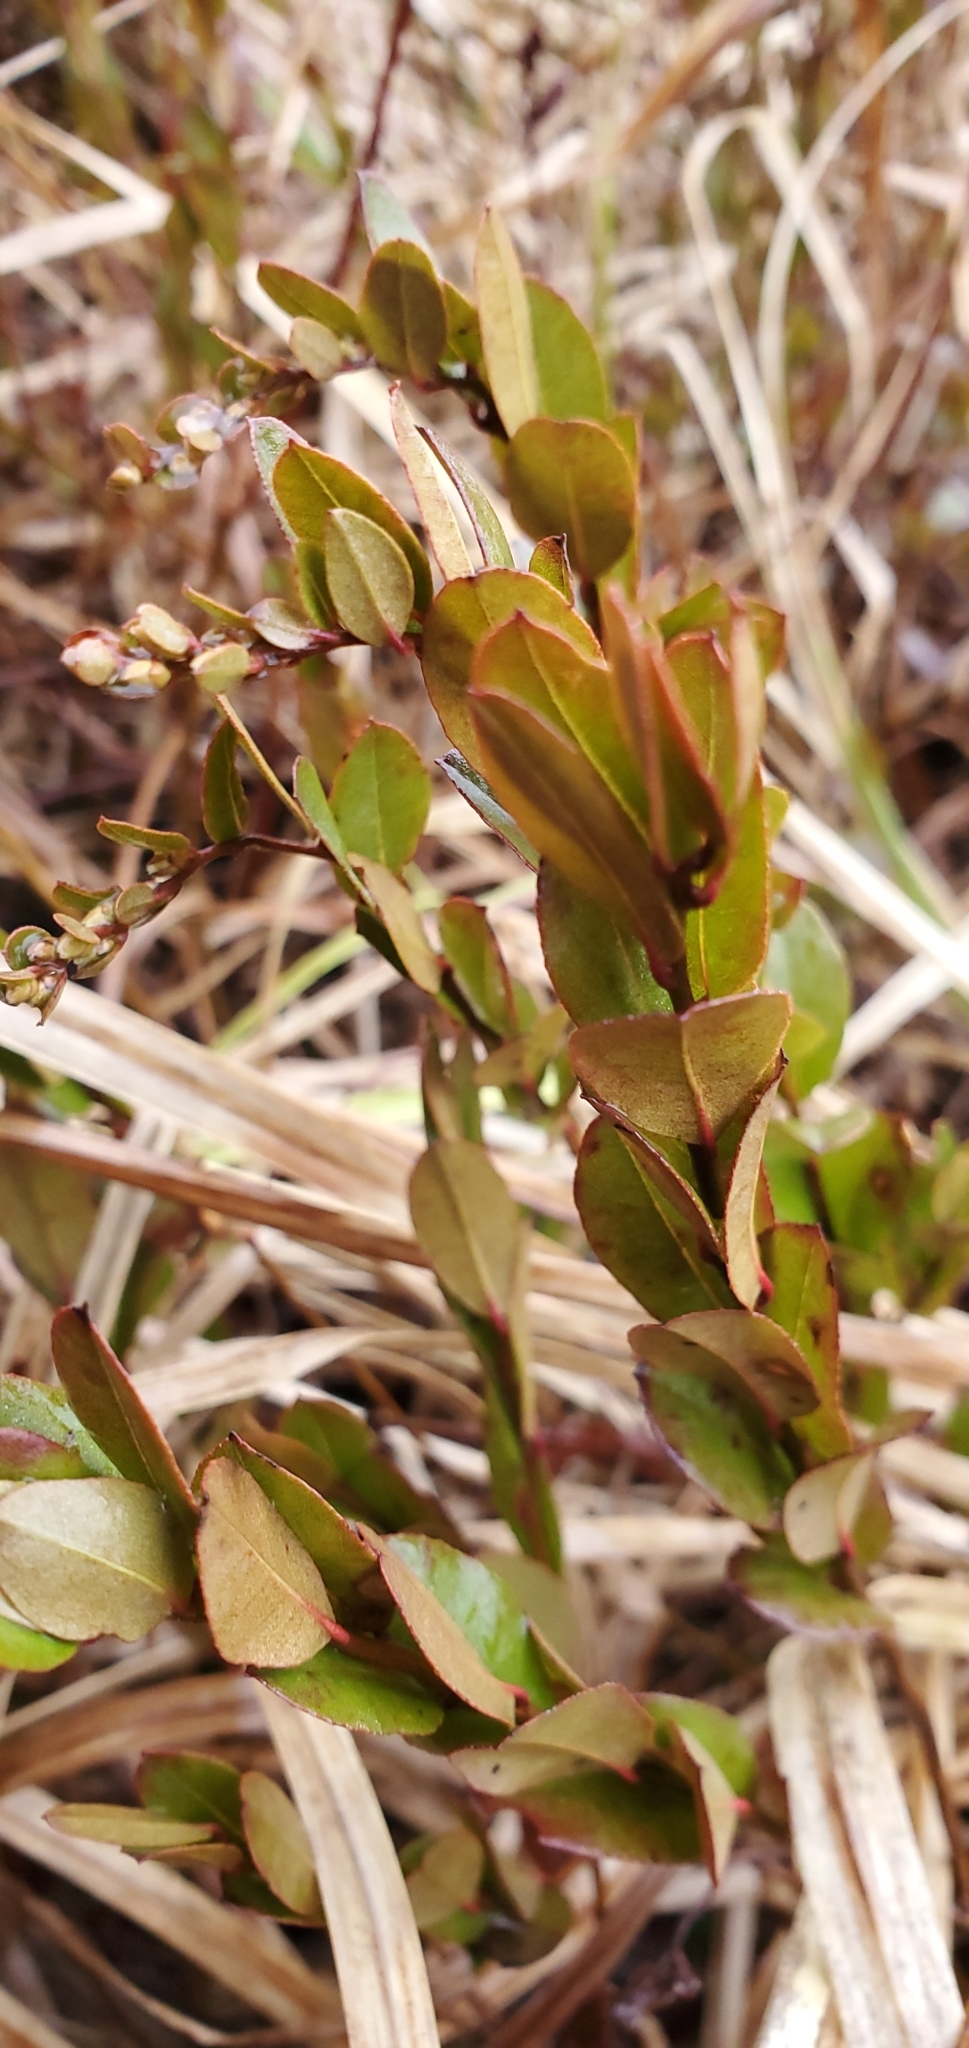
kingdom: Plantae
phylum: Tracheophyta
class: Magnoliopsida
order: Ericales
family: Ericaceae
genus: Chamaedaphne
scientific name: Chamaedaphne calyculata
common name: Leatherleaf
